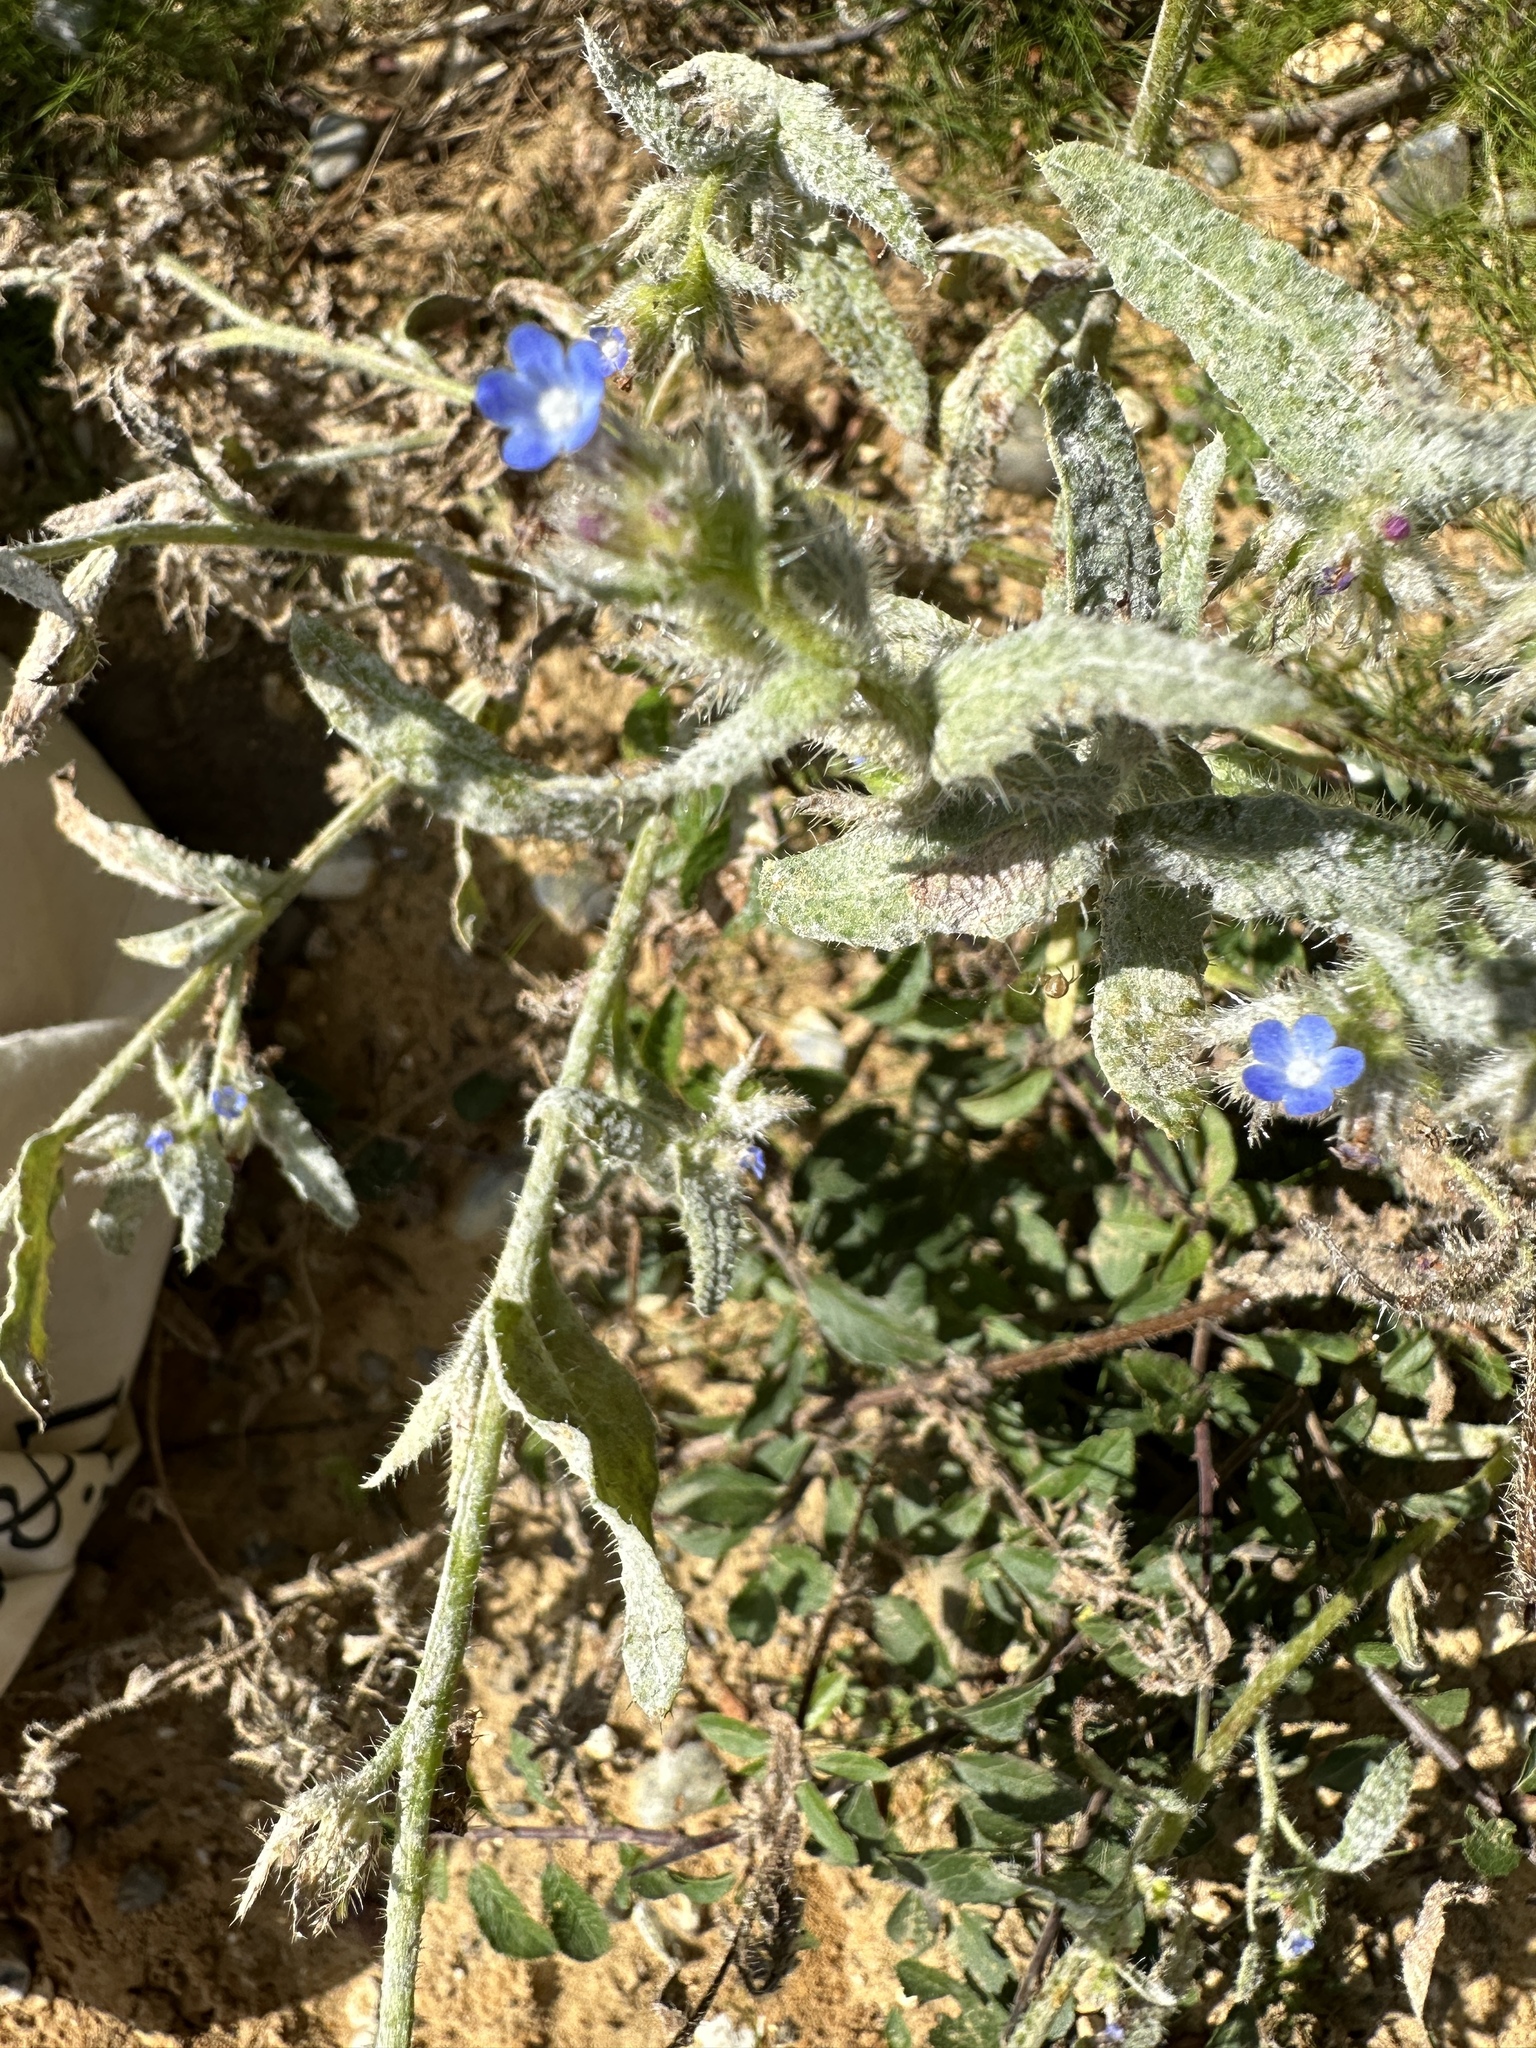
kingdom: Plantae
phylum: Tracheophyta
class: Magnoliopsida
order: Boraginales
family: Boraginaceae
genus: Lycopsis
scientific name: Lycopsis arvensis
